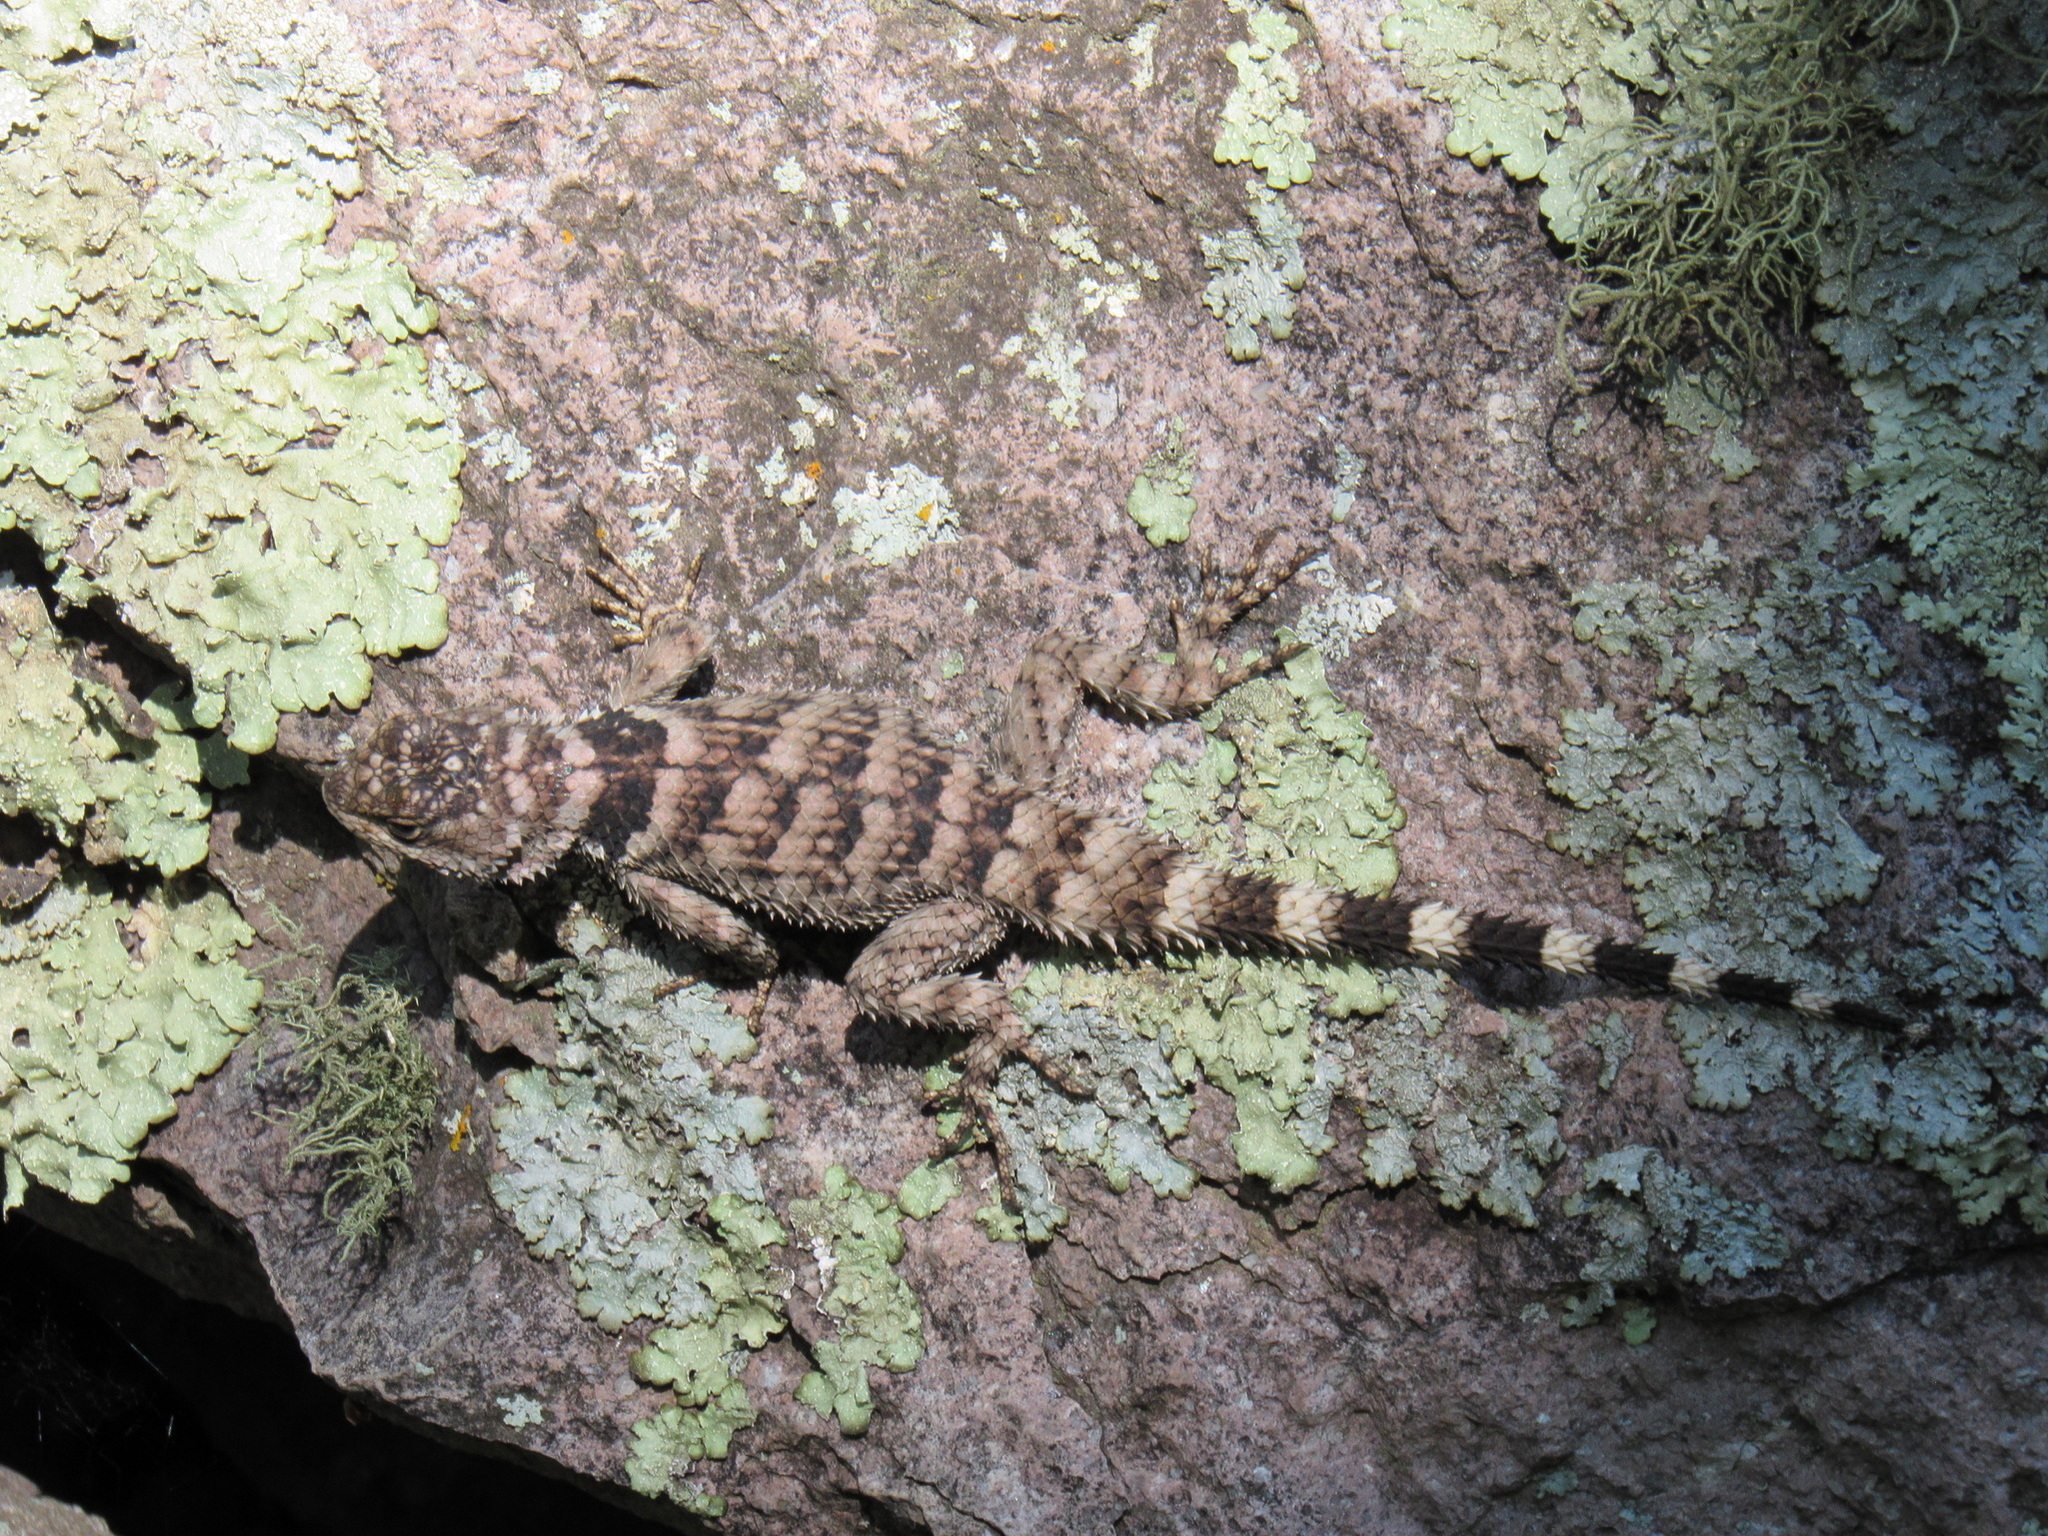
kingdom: Animalia
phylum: Chordata
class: Squamata
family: Phrynosomatidae
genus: Sceloporus
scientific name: Sceloporus poinsettii
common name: Crevice spiny lizard
